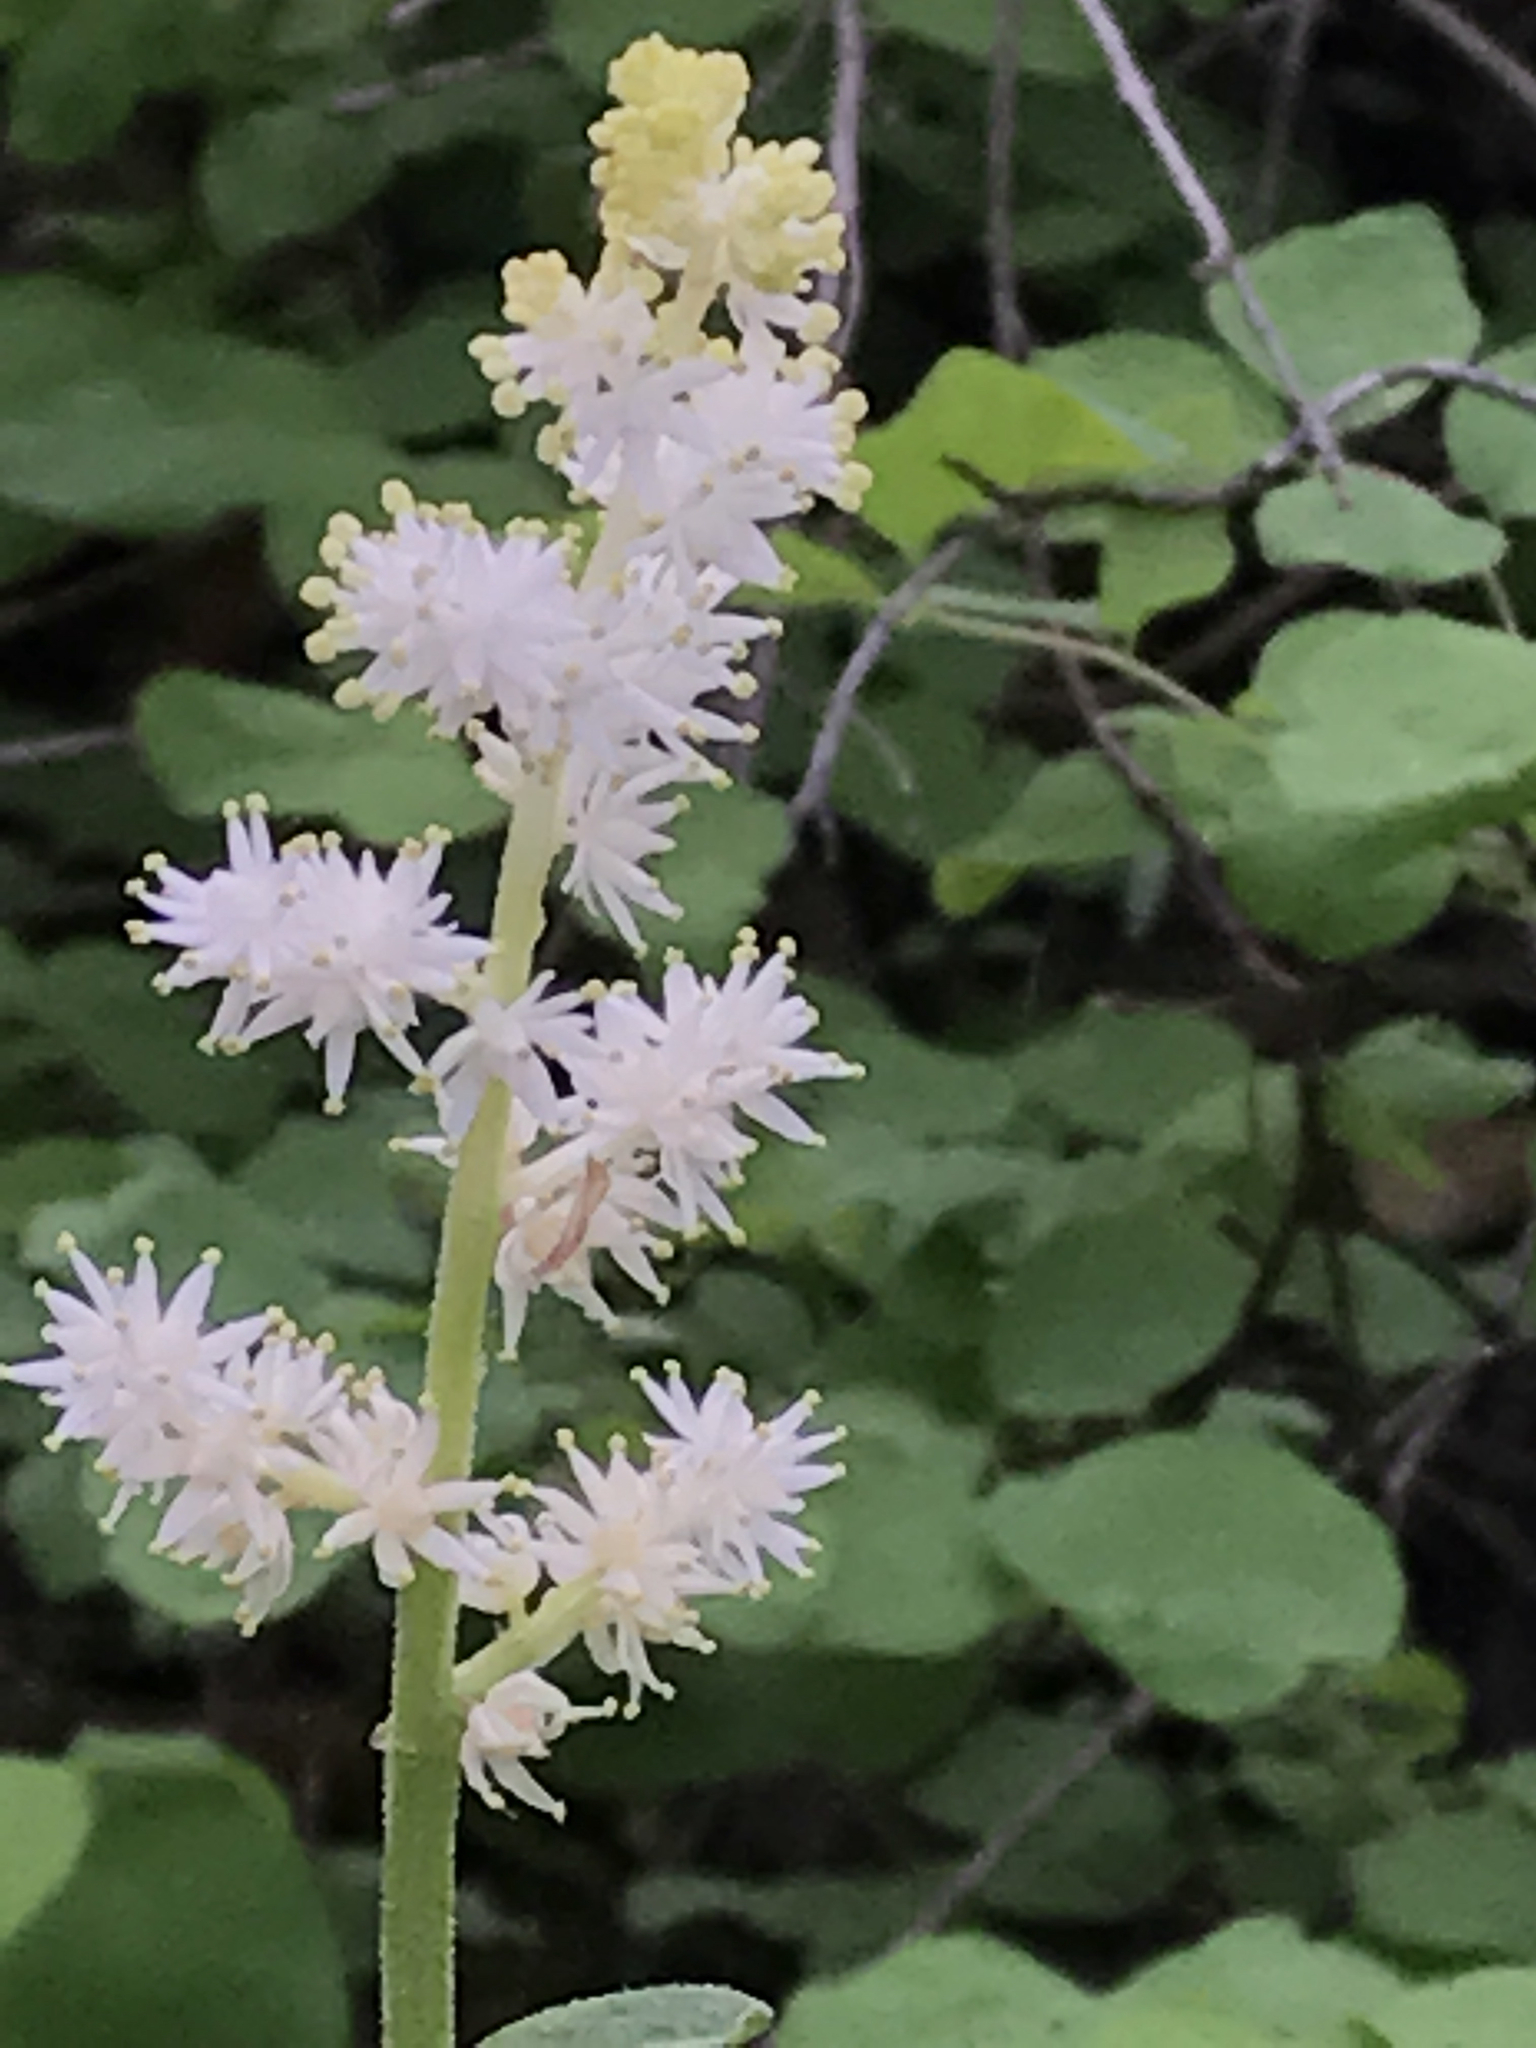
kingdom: Plantae
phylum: Tracheophyta
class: Liliopsida
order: Asparagales
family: Asparagaceae
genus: Maianthemum
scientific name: Maianthemum racemosum
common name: False spikenard
